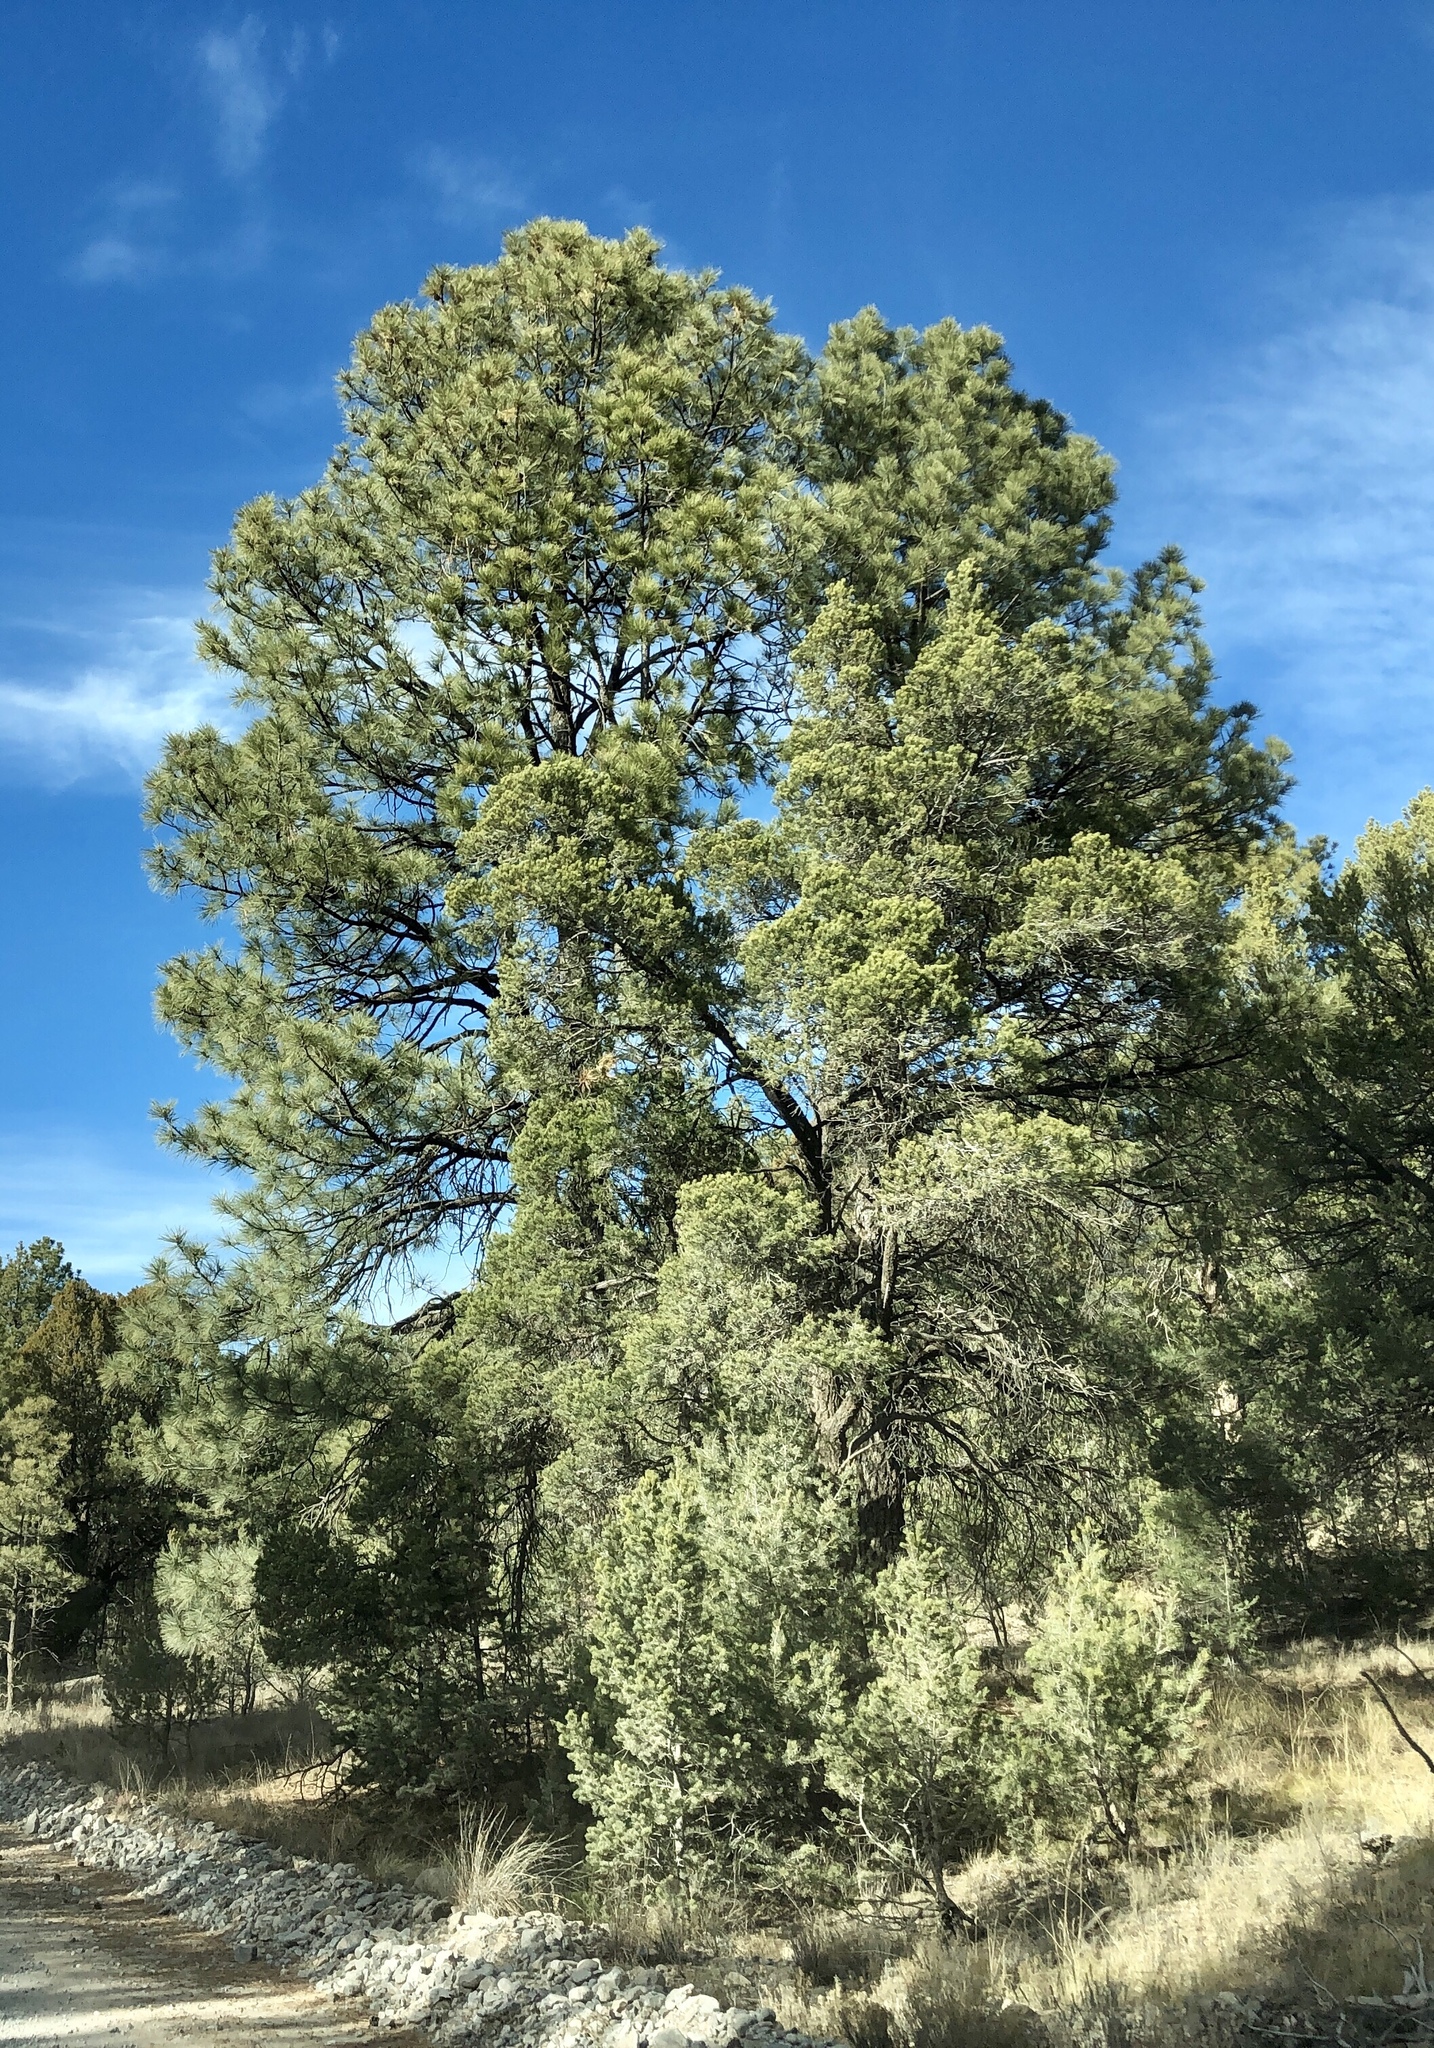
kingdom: Plantae
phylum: Tracheophyta
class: Pinopsida
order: Pinales
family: Pinaceae
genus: Pinus
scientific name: Pinus ponderosa
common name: Western yellow-pine
